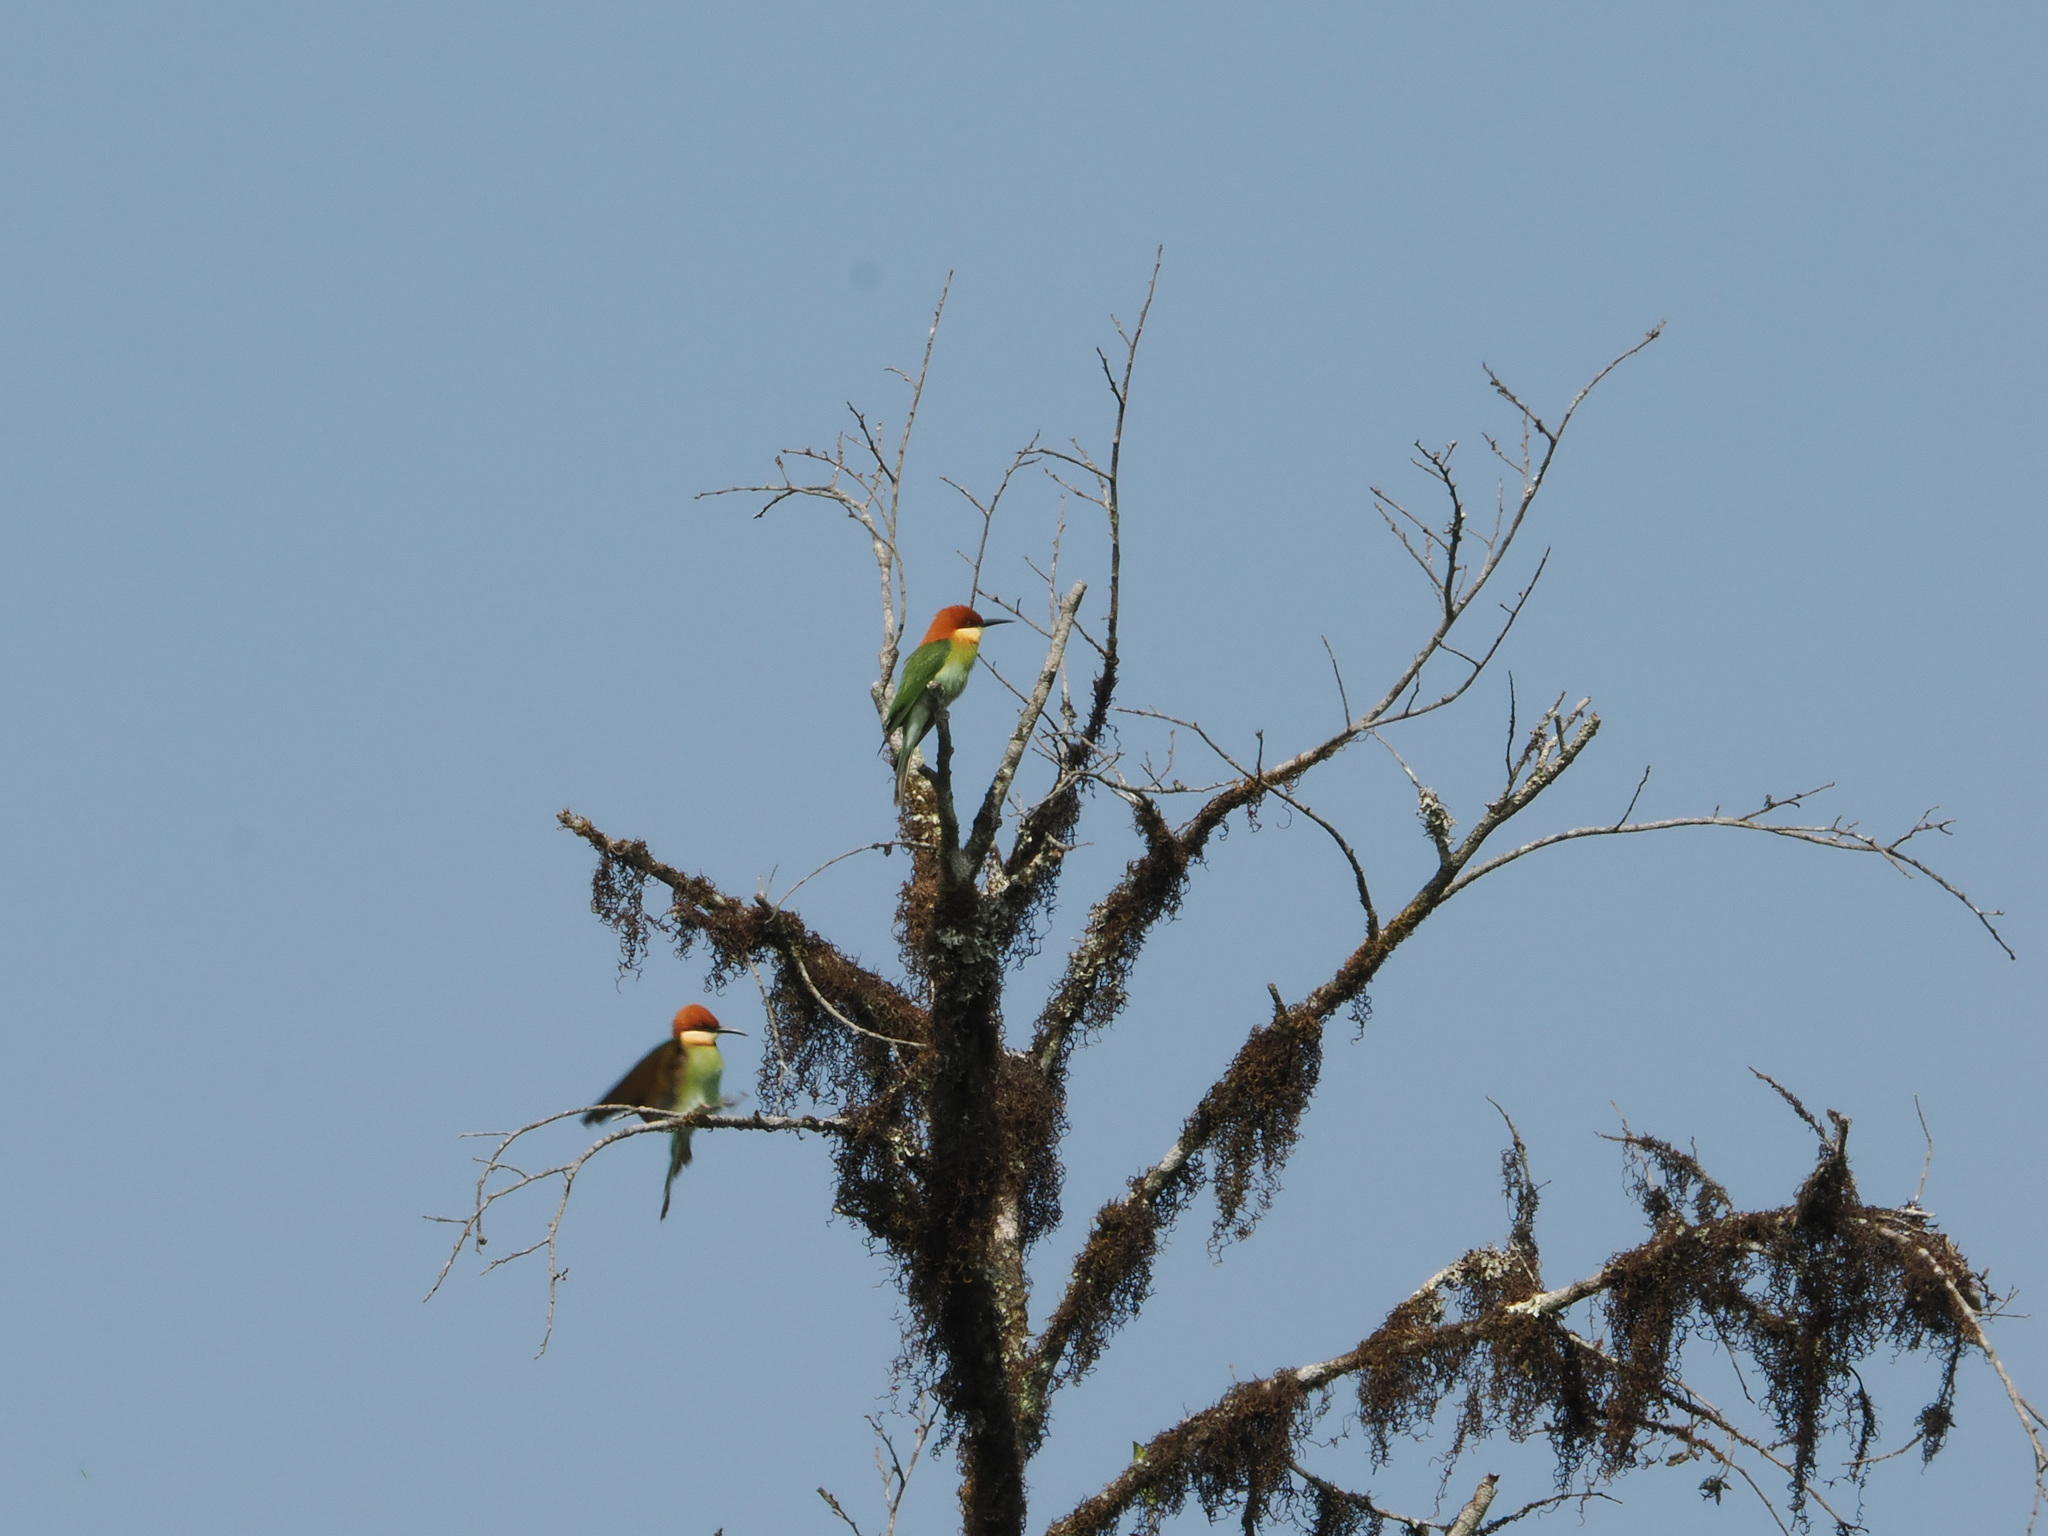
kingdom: Animalia
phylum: Chordata
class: Aves
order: Coraciiformes
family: Meropidae
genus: Merops
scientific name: Merops leschenaulti
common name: Chestnut-headed bee-eater
